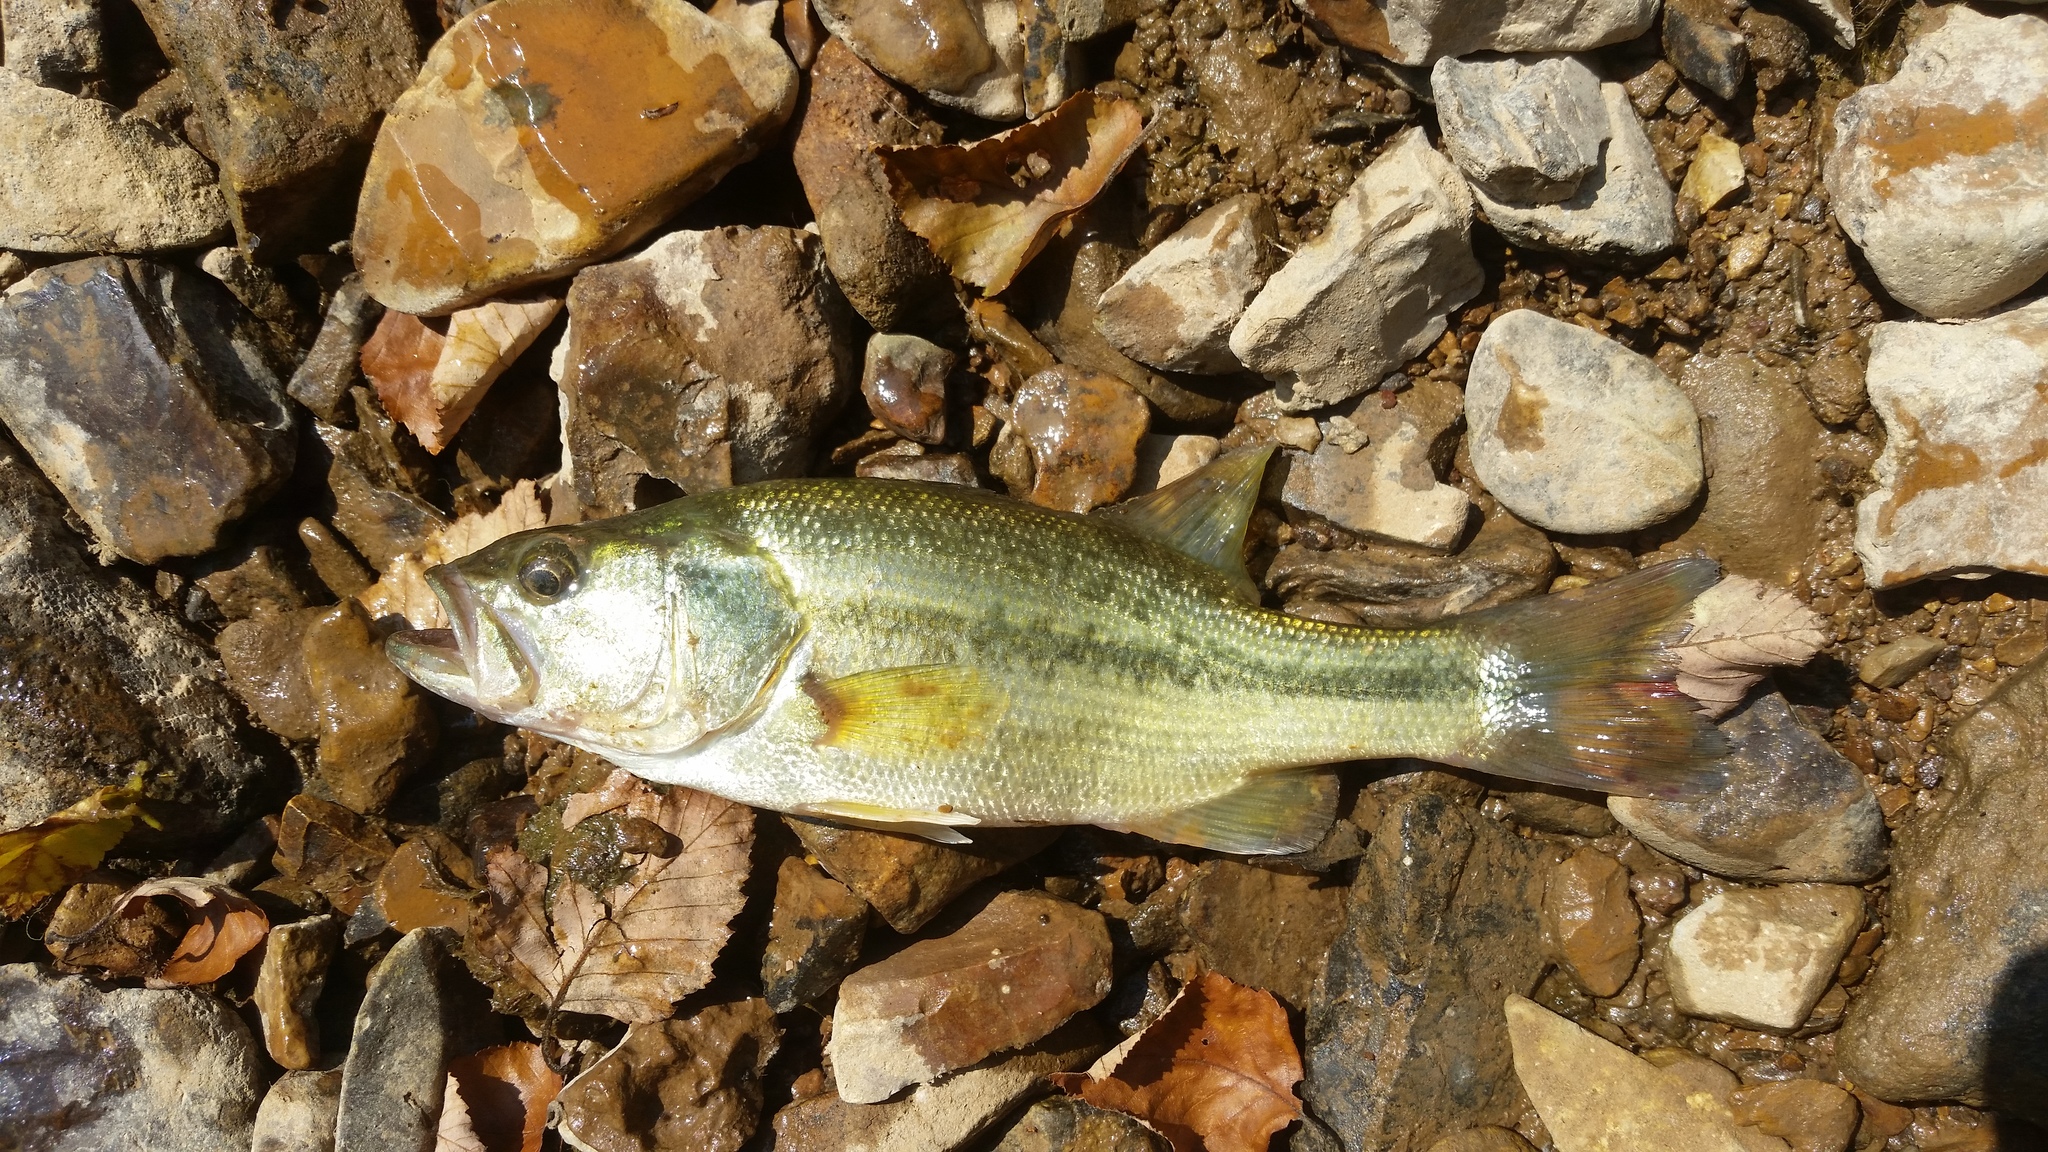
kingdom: Animalia
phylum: Chordata
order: Perciformes
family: Centrarchidae
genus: Micropterus
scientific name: Micropterus punctulatus
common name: Spotted bass
